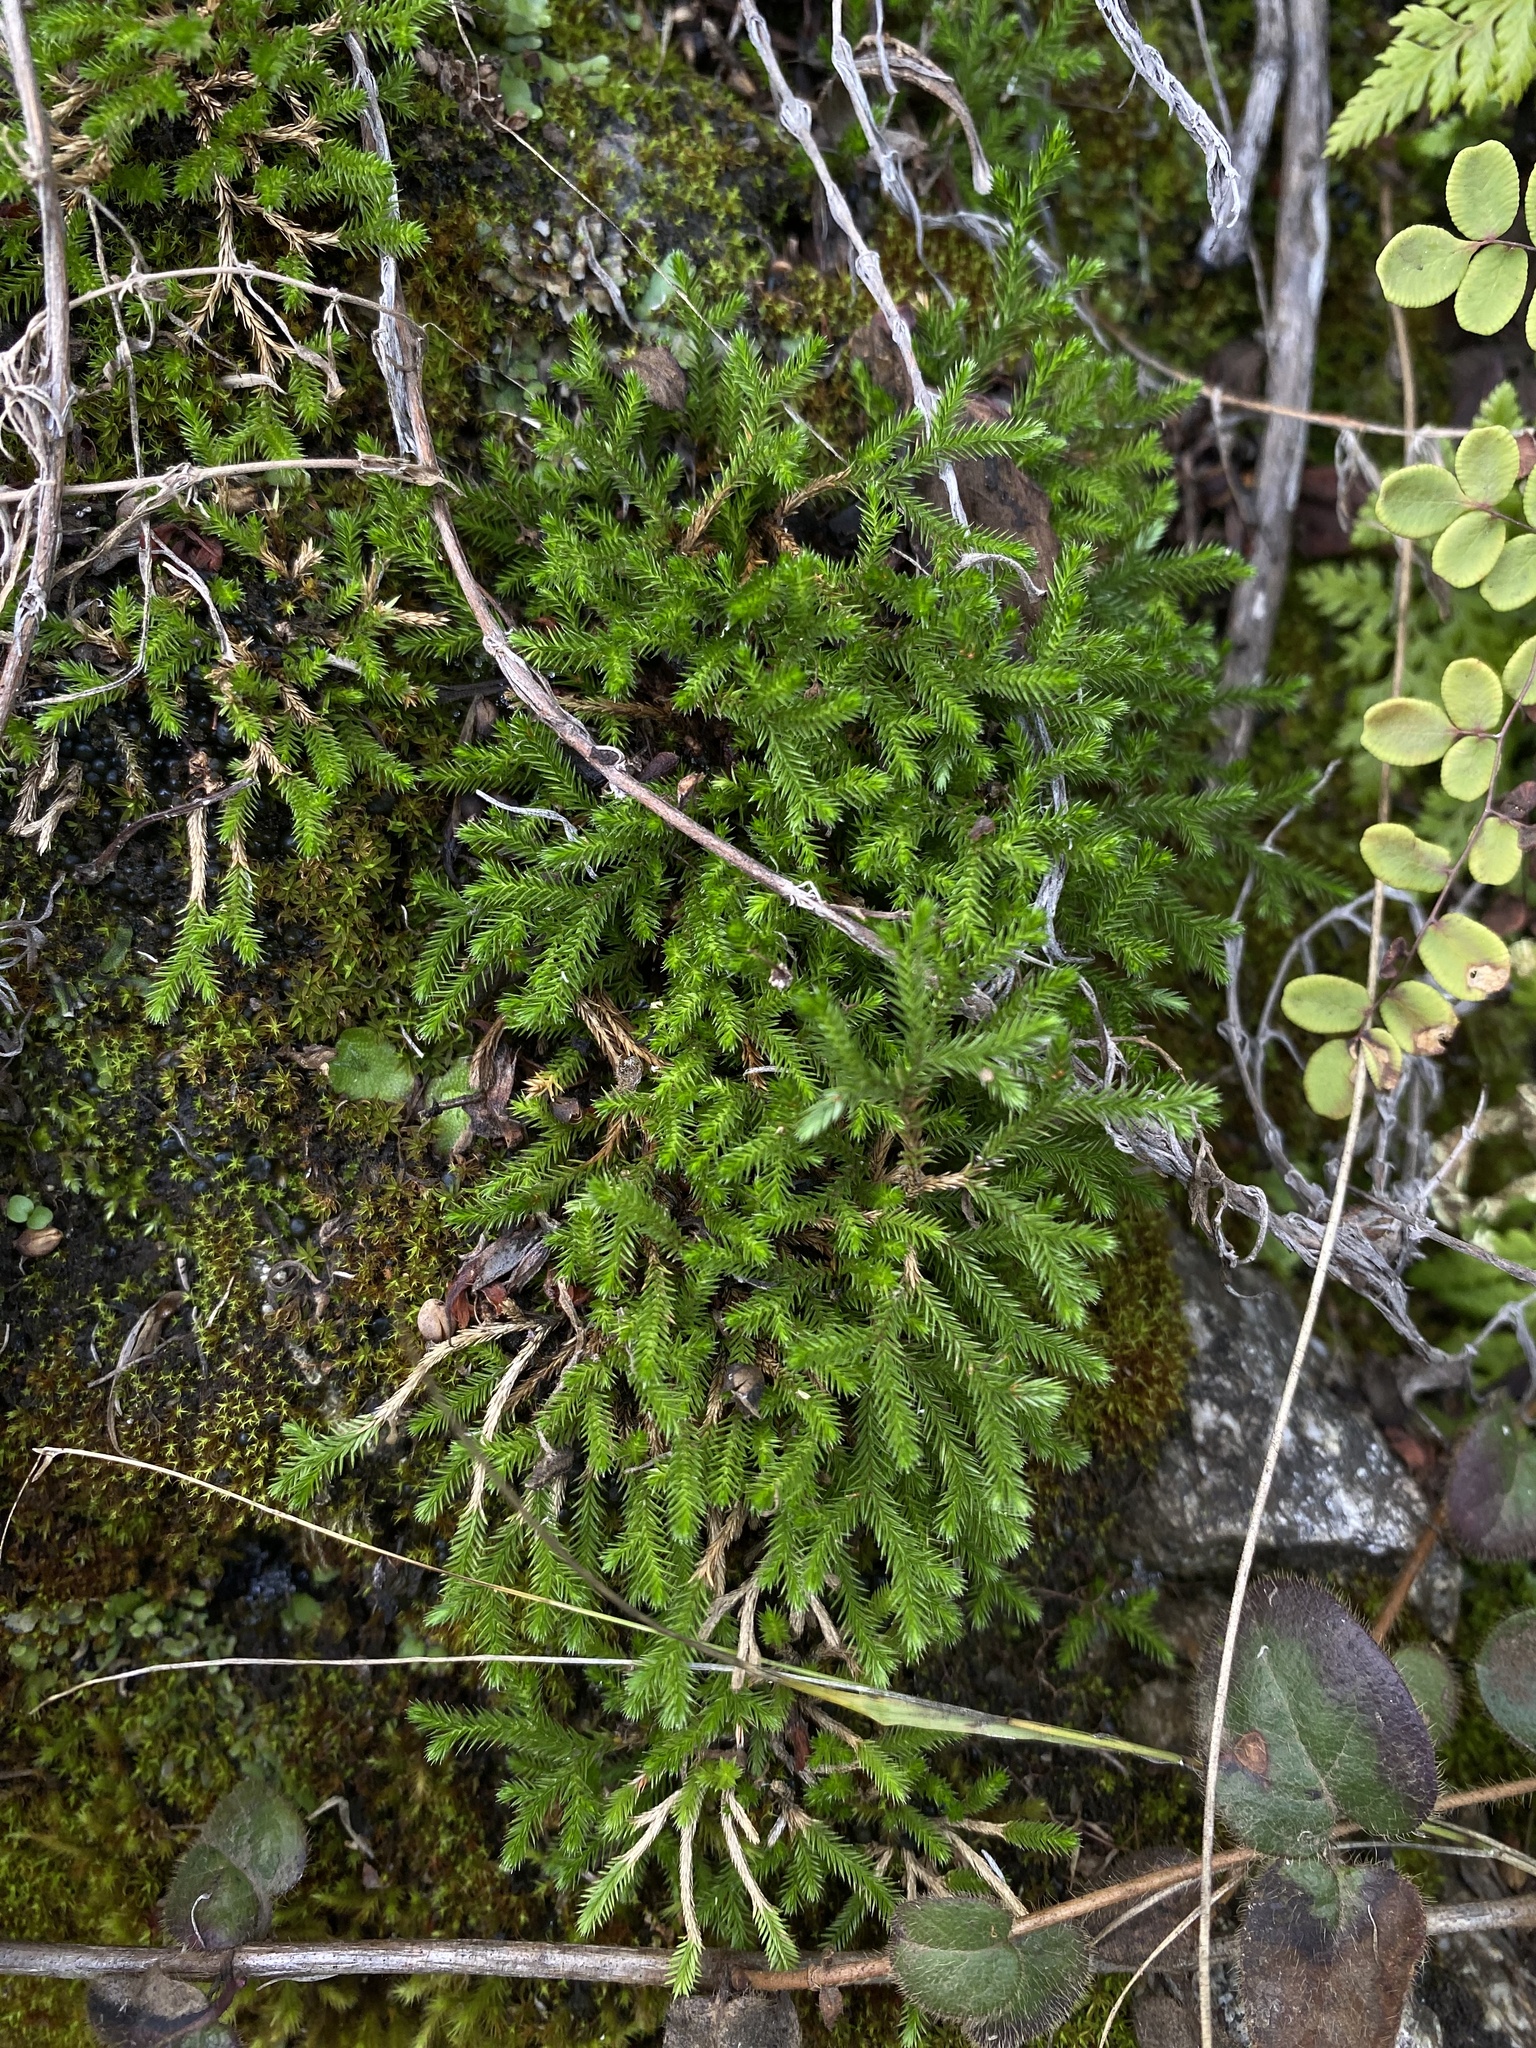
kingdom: Plantae
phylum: Tracheophyta
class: Lycopodiopsida
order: Selaginellales
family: Selaginellaceae
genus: Selaginella
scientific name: Selaginella bigelovii
